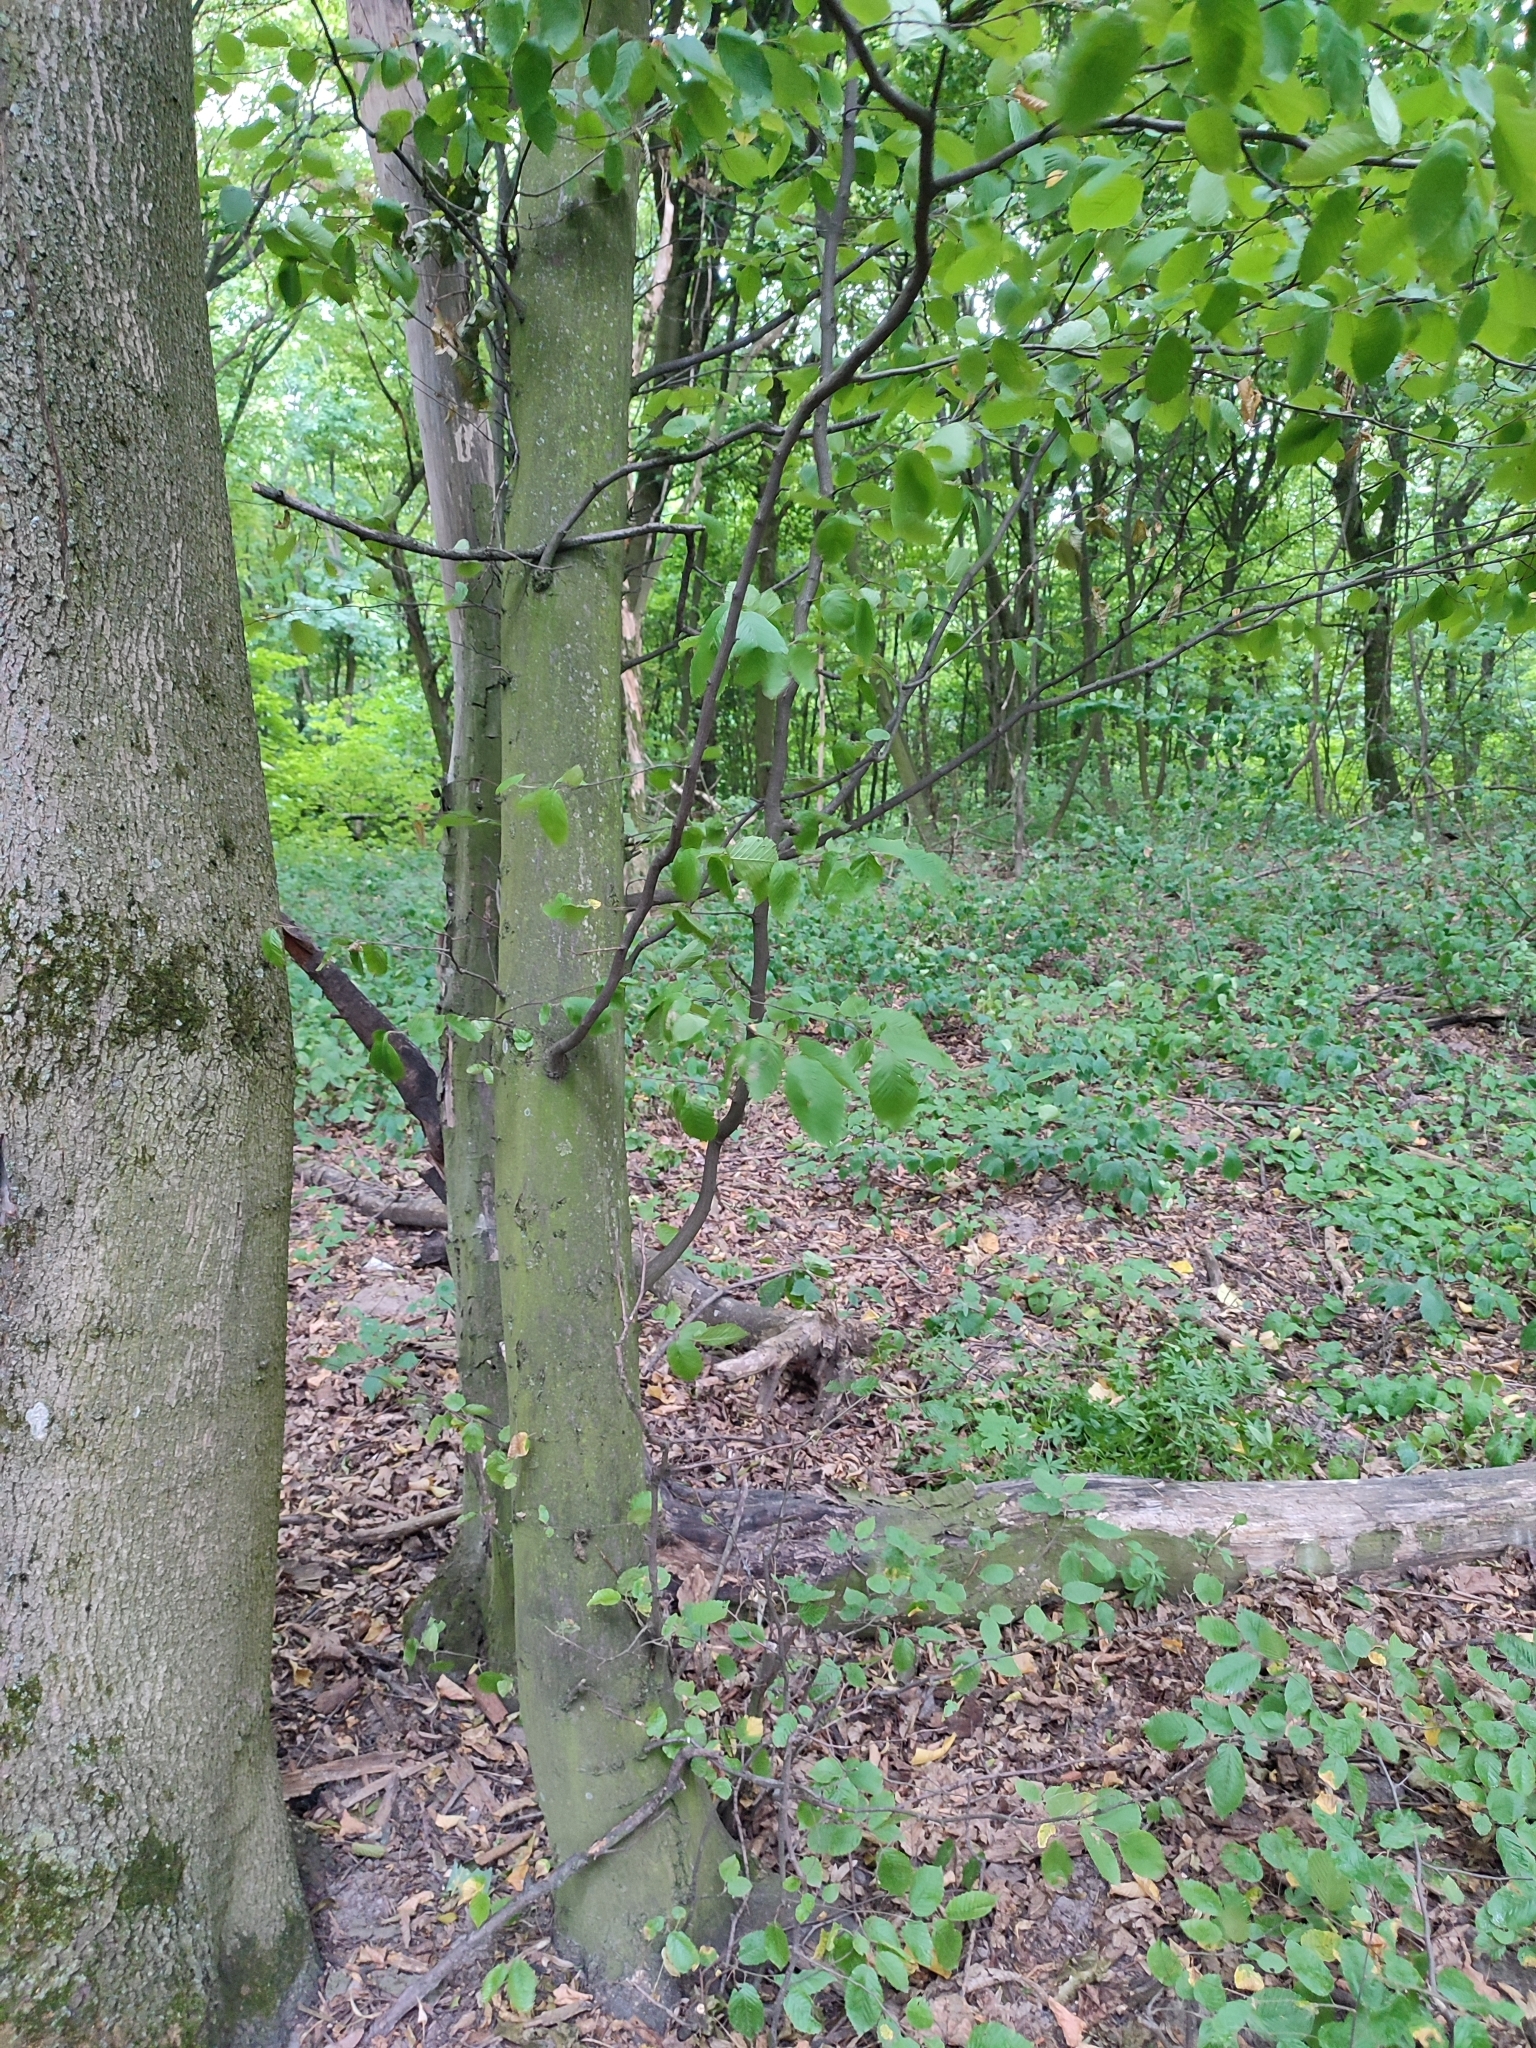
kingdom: Plantae
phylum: Tracheophyta
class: Magnoliopsida
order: Fagales
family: Betulaceae
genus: Carpinus
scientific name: Carpinus betulus
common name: Hornbeam
